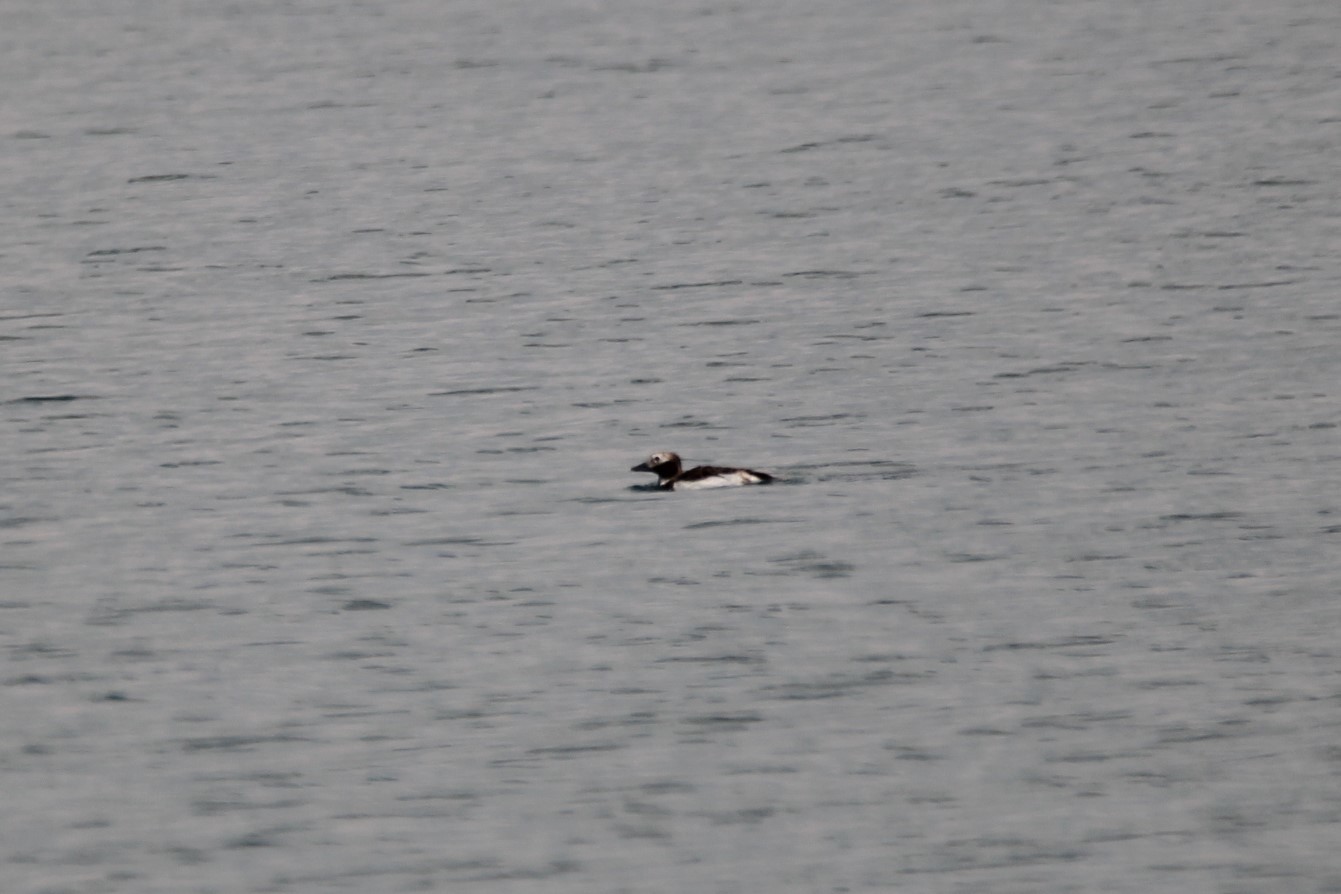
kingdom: Animalia
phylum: Chordata
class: Aves
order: Anseriformes
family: Anatidae
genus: Clangula
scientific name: Clangula hyemalis
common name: Long-tailed duck
